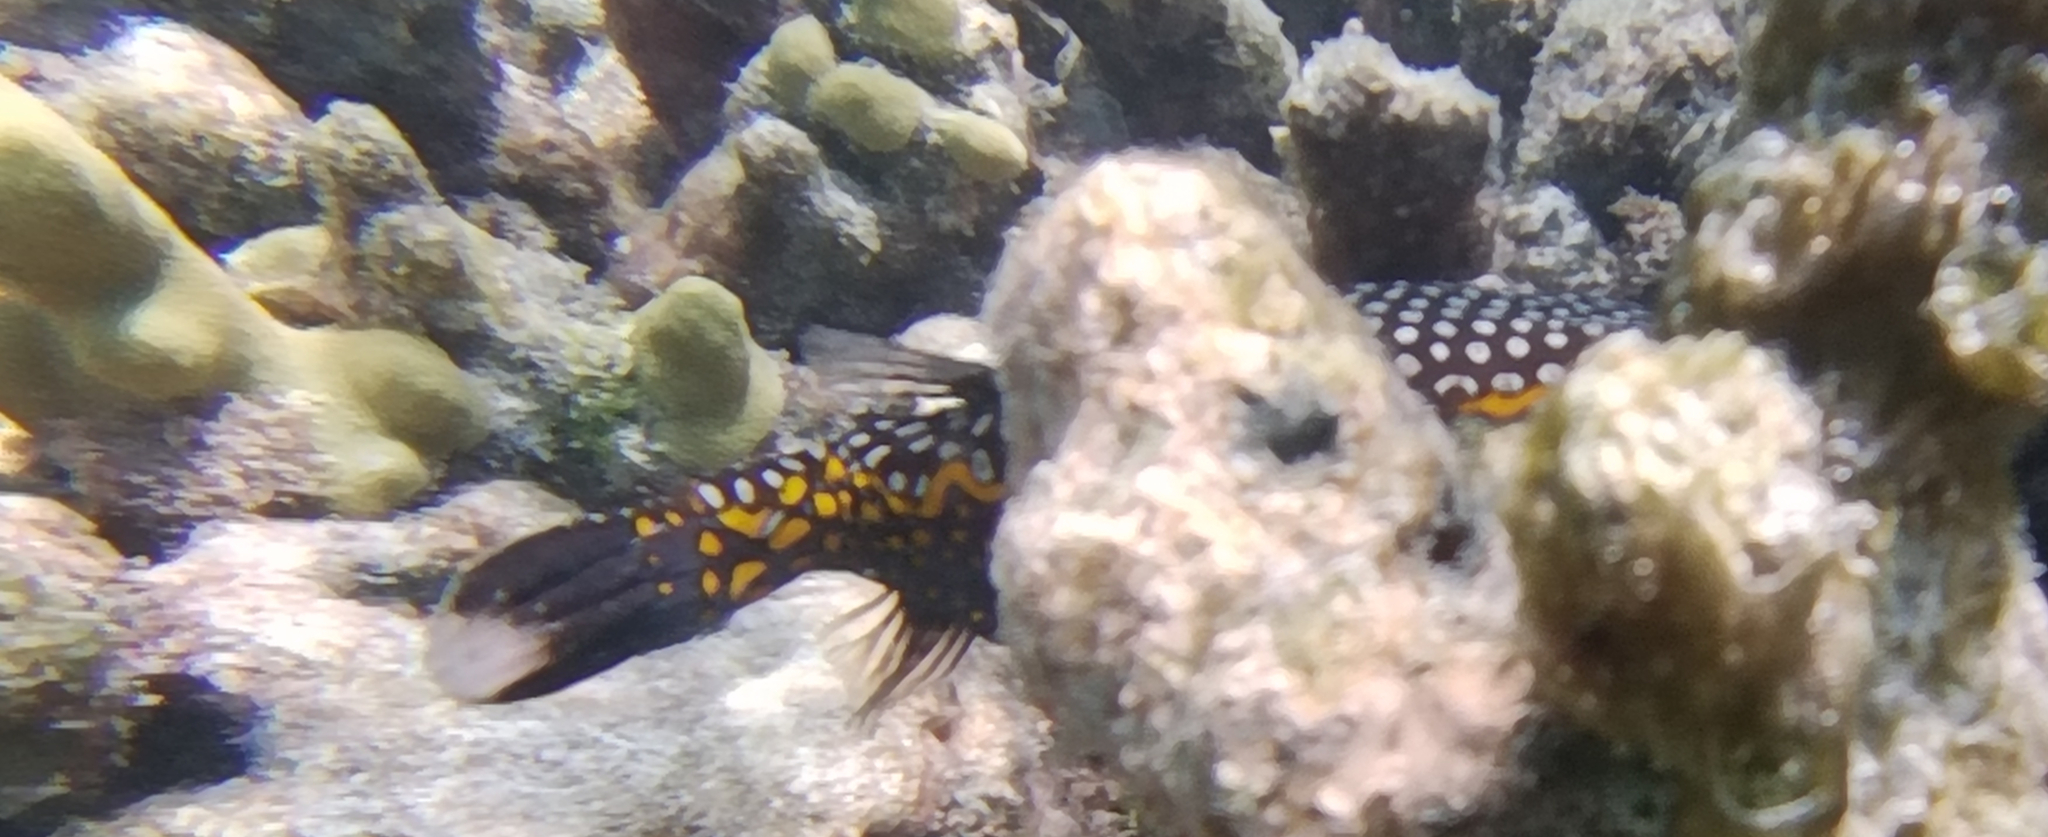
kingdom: Animalia
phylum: Chordata
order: Tetraodontiformes
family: Ostraciidae
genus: Ostracion
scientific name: Ostracion meleagris
